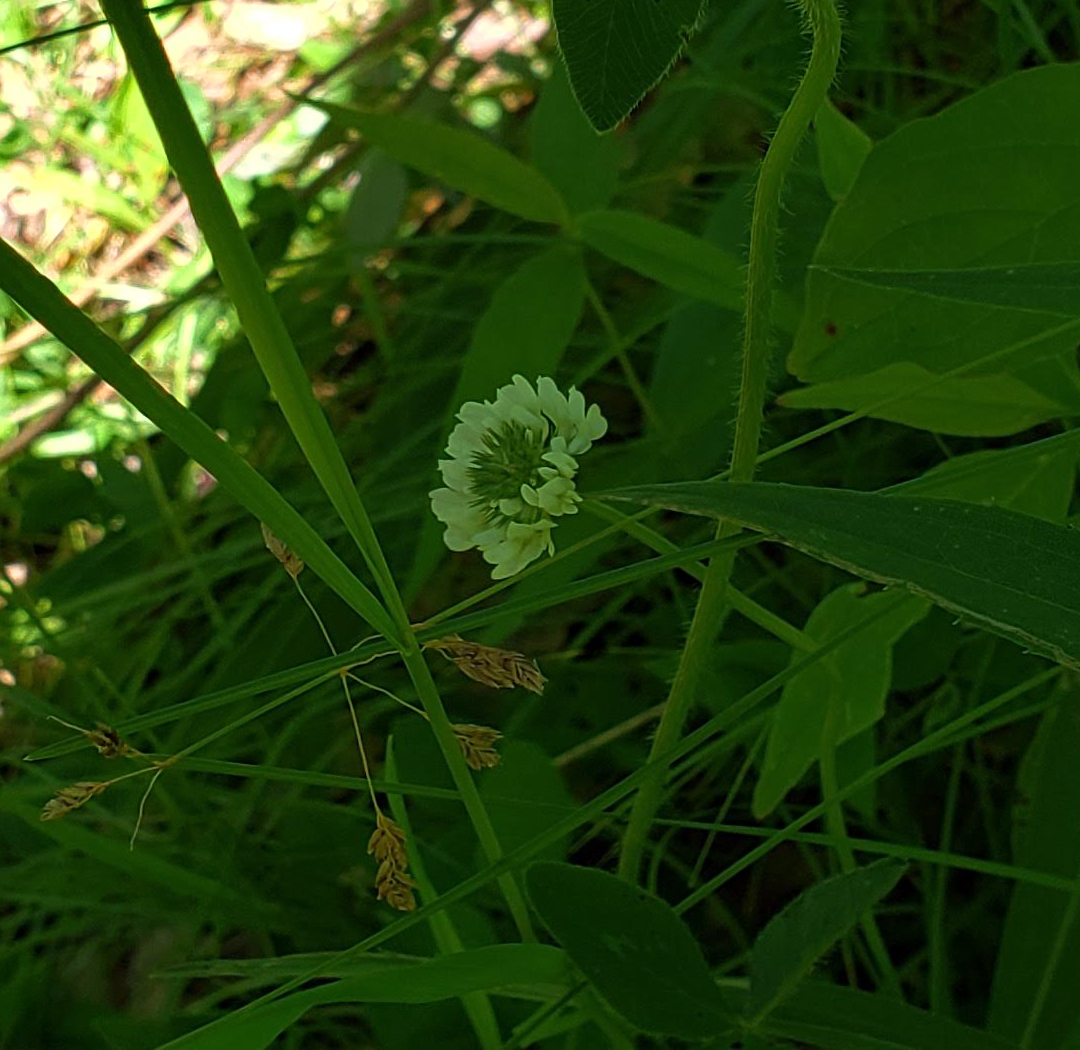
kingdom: Plantae
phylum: Tracheophyta
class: Magnoliopsida
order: Fabales
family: Fabaceae
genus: Trifolium
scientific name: Trifolium repens
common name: White clover
